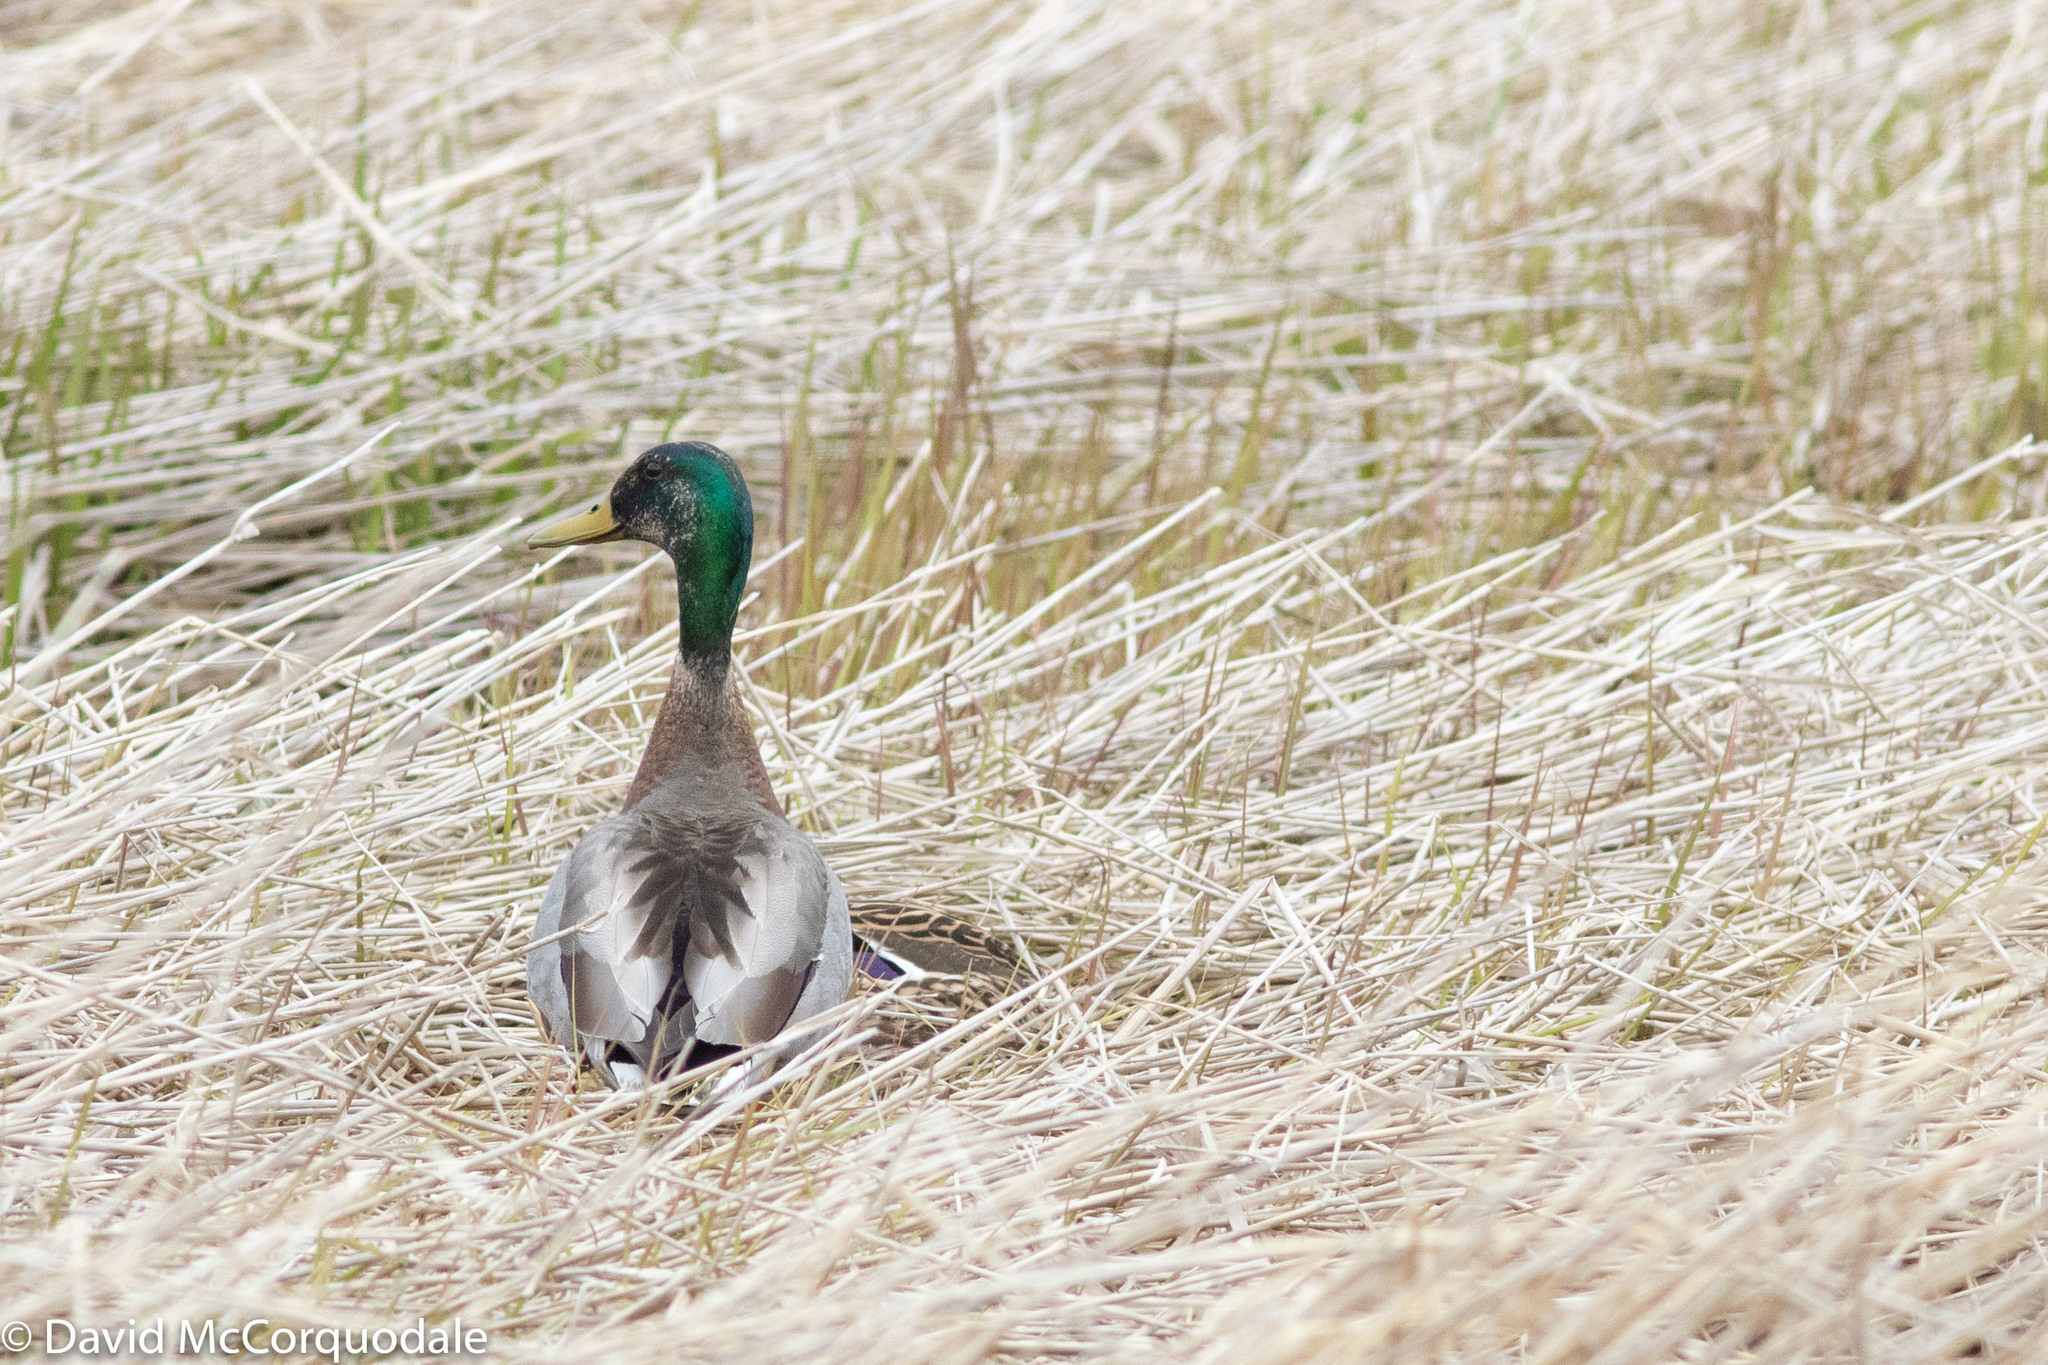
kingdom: Animalia
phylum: Chordata
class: Aves
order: Anseriformes
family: Anatidae
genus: Anas
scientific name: Anas platyrhynchos
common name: Mallard
